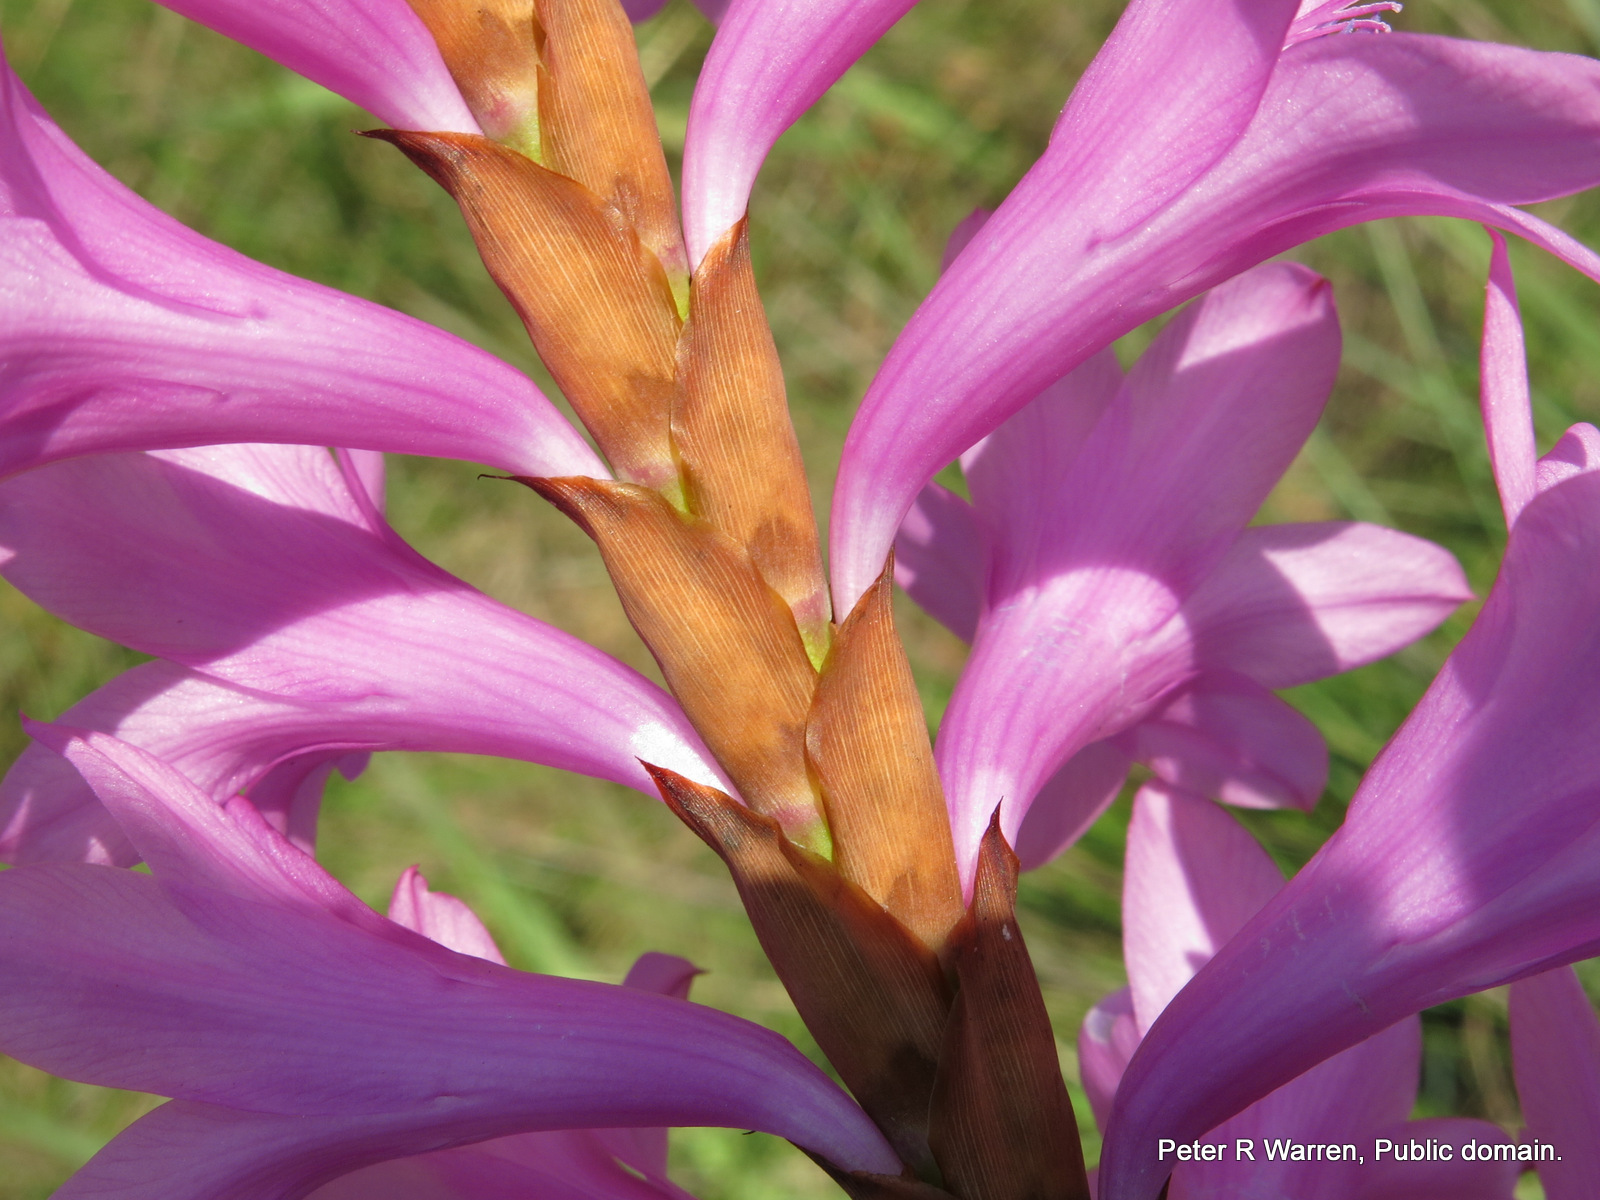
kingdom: Plantae
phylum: Tracheophyta
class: Liliopsida
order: Asparagales
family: Iridaceae
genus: Watsonia
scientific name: Watsonia densiflora
